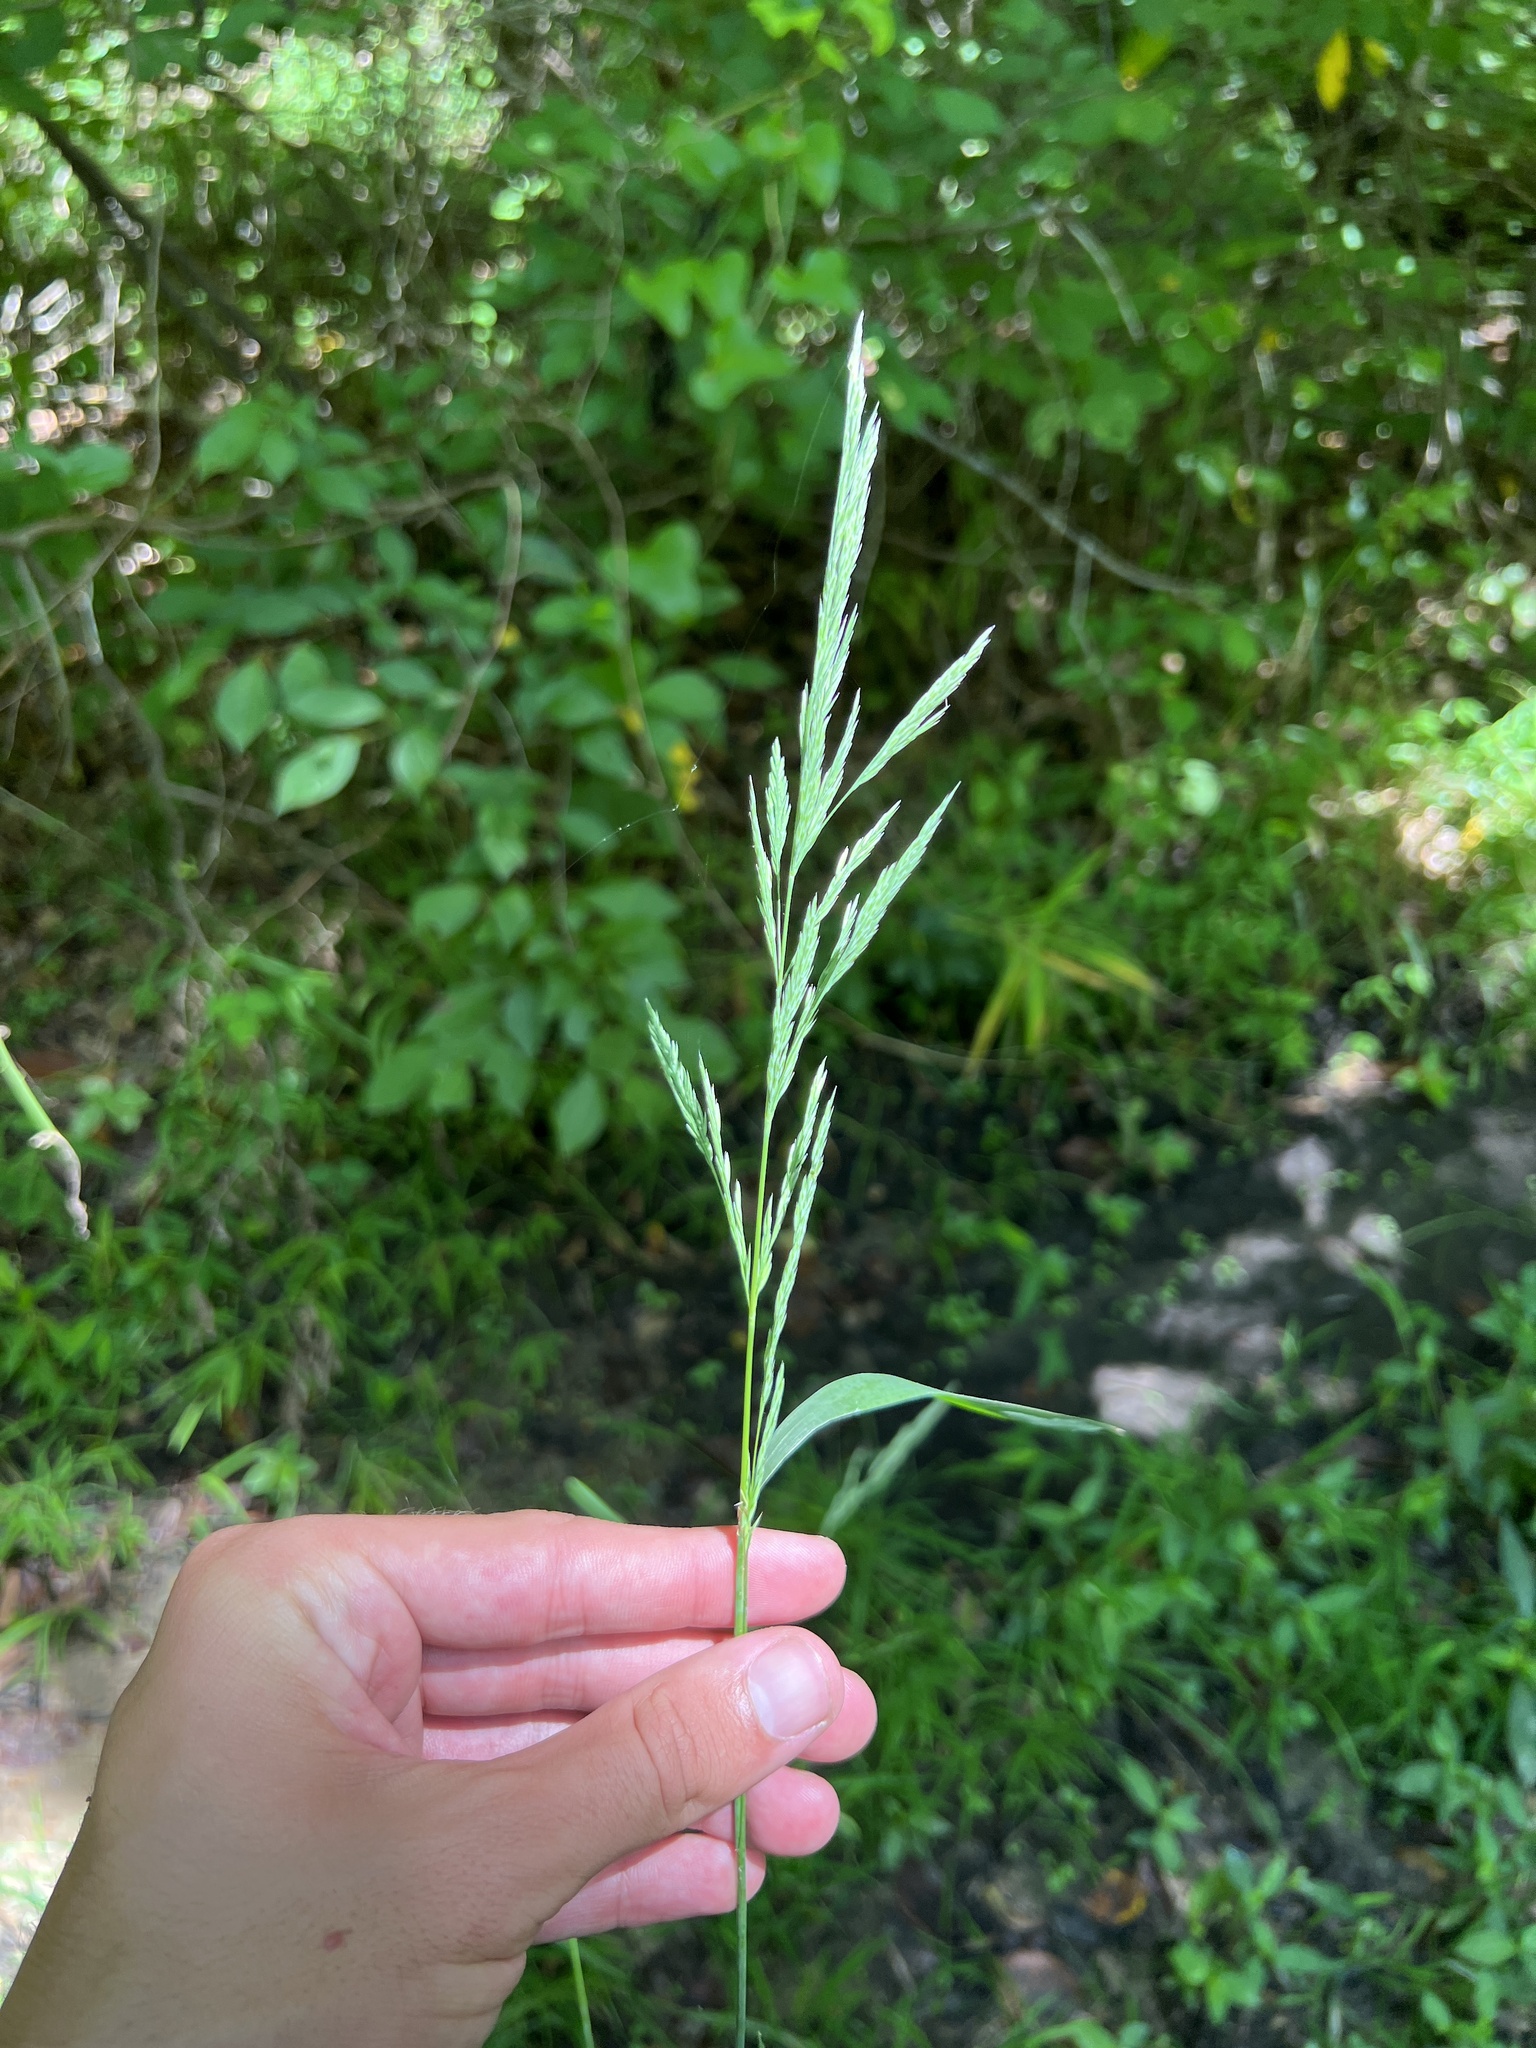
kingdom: Plantae
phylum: Tracheophyta
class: Liliopsida
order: Poales
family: Poaceae
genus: Cinna
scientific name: Cinna arundinacea
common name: Stout woodreed
